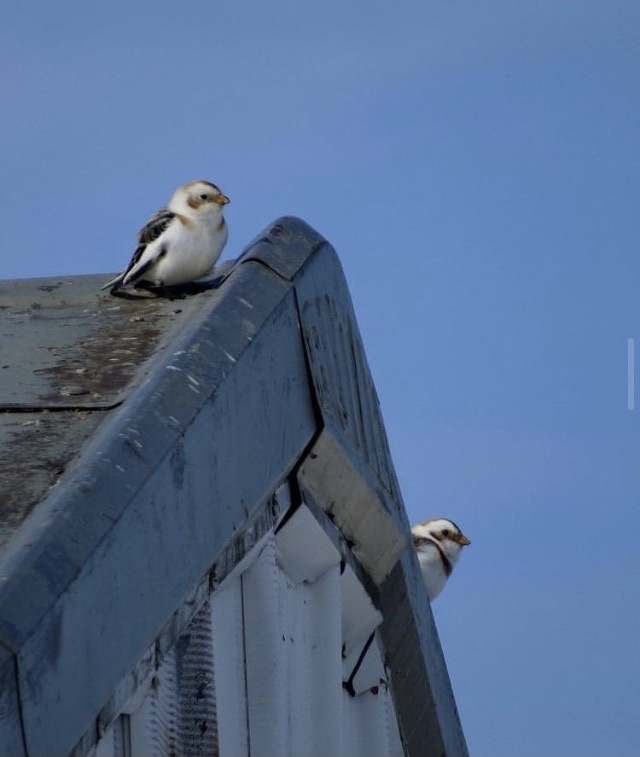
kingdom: Animalia
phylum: Chordata
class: Aves
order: Passeriformes
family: Calcariidae
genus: Plectrophenax
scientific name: Plectrophenax nivalis
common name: Snow bunting
